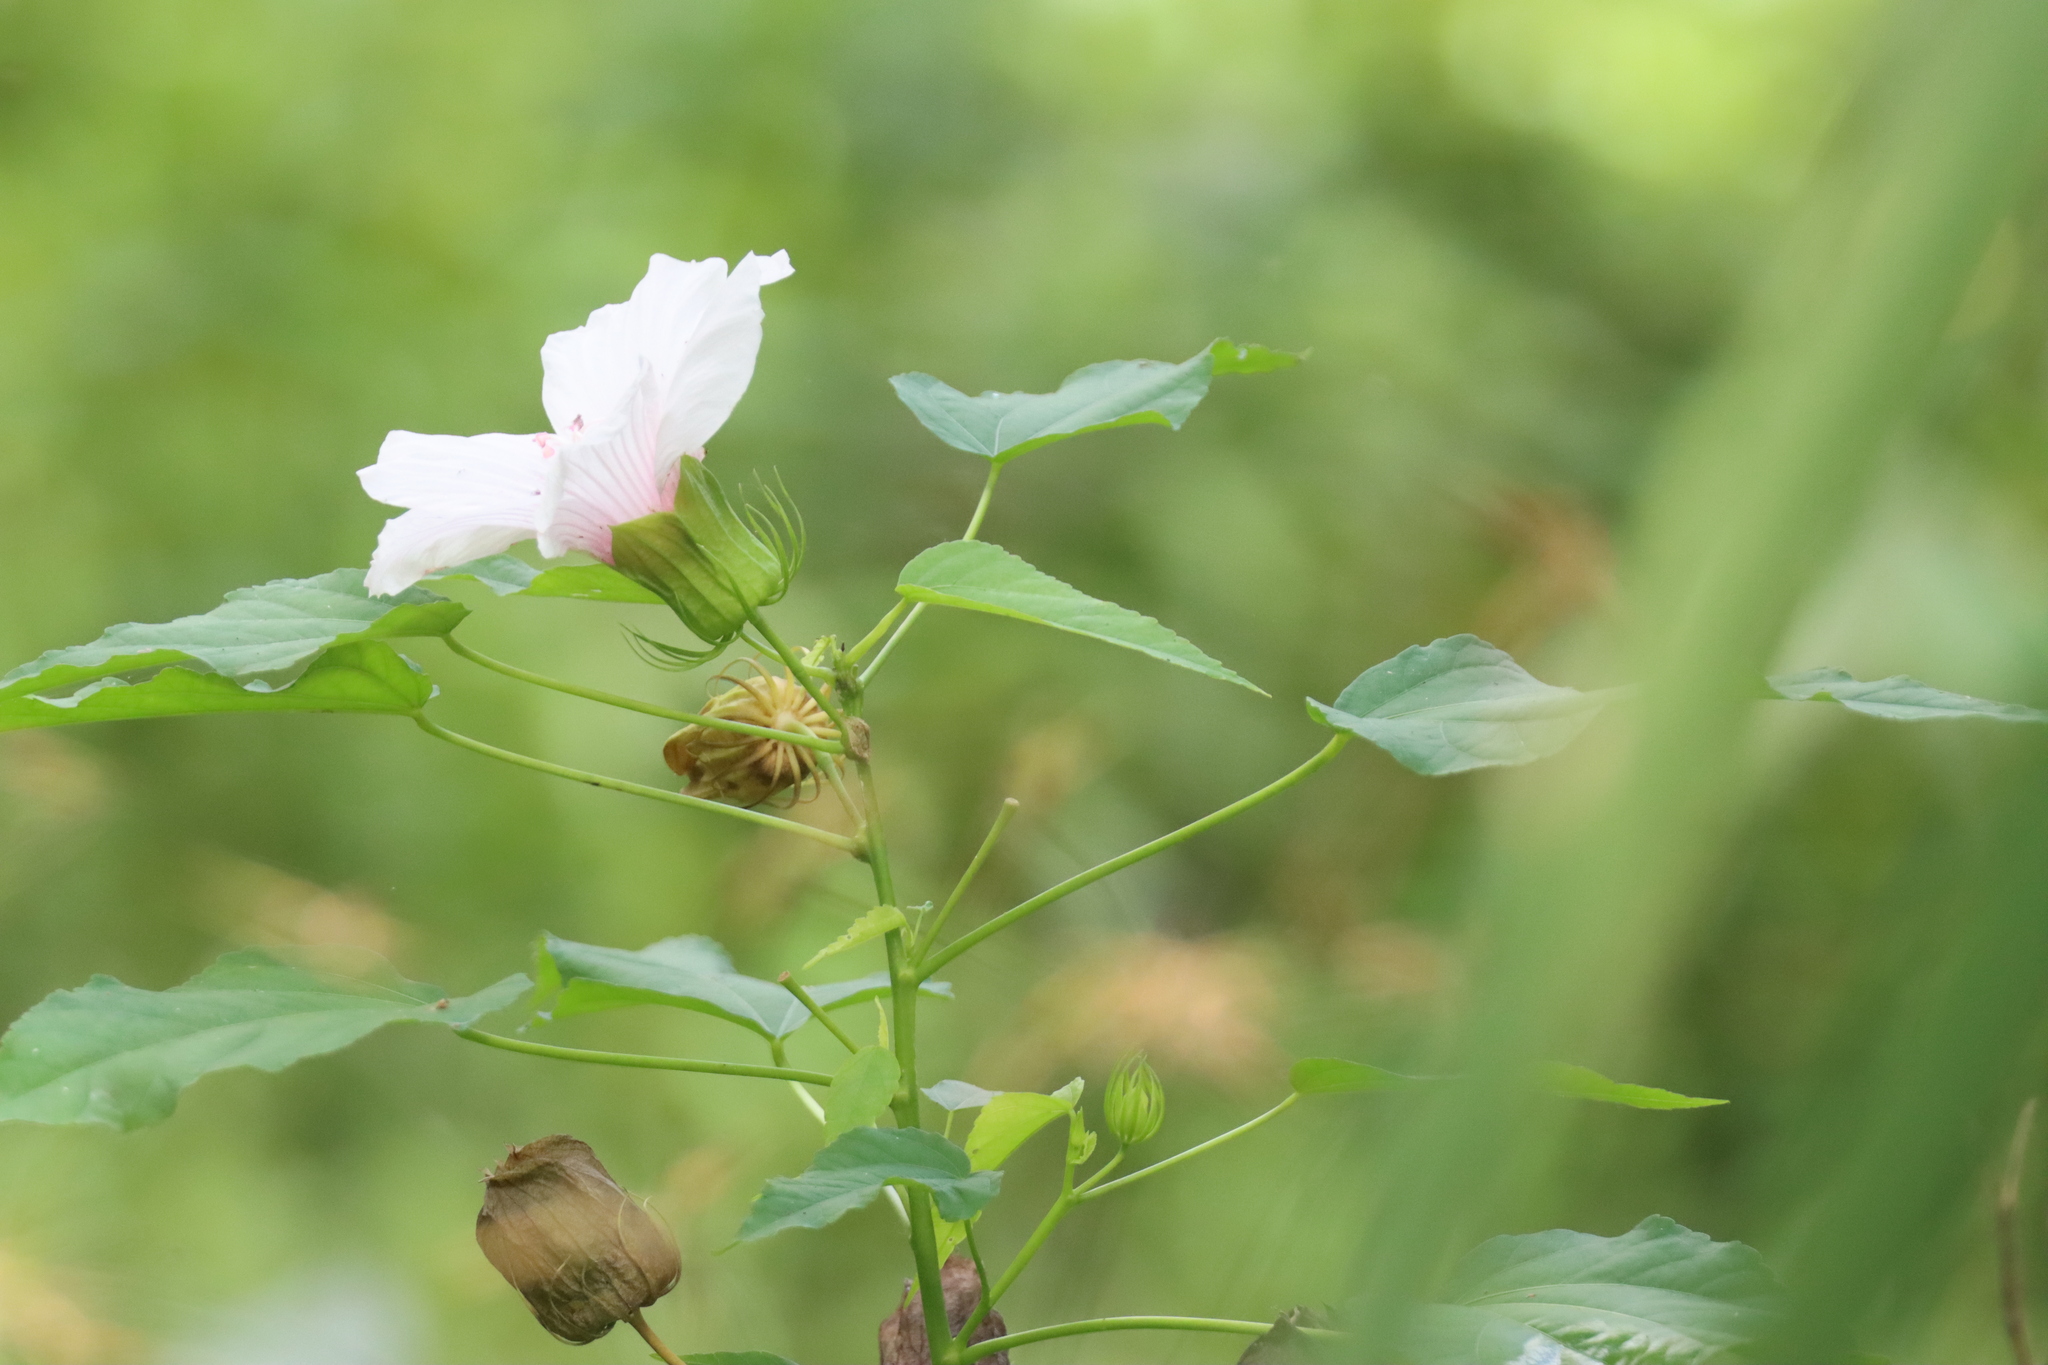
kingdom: Plantae
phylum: Tracheophyta
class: Magnoliopsida
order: Malvales
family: Malvaceae
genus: Hibiscus
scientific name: Hibiscus laevis
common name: Scarlet rose-mallow
